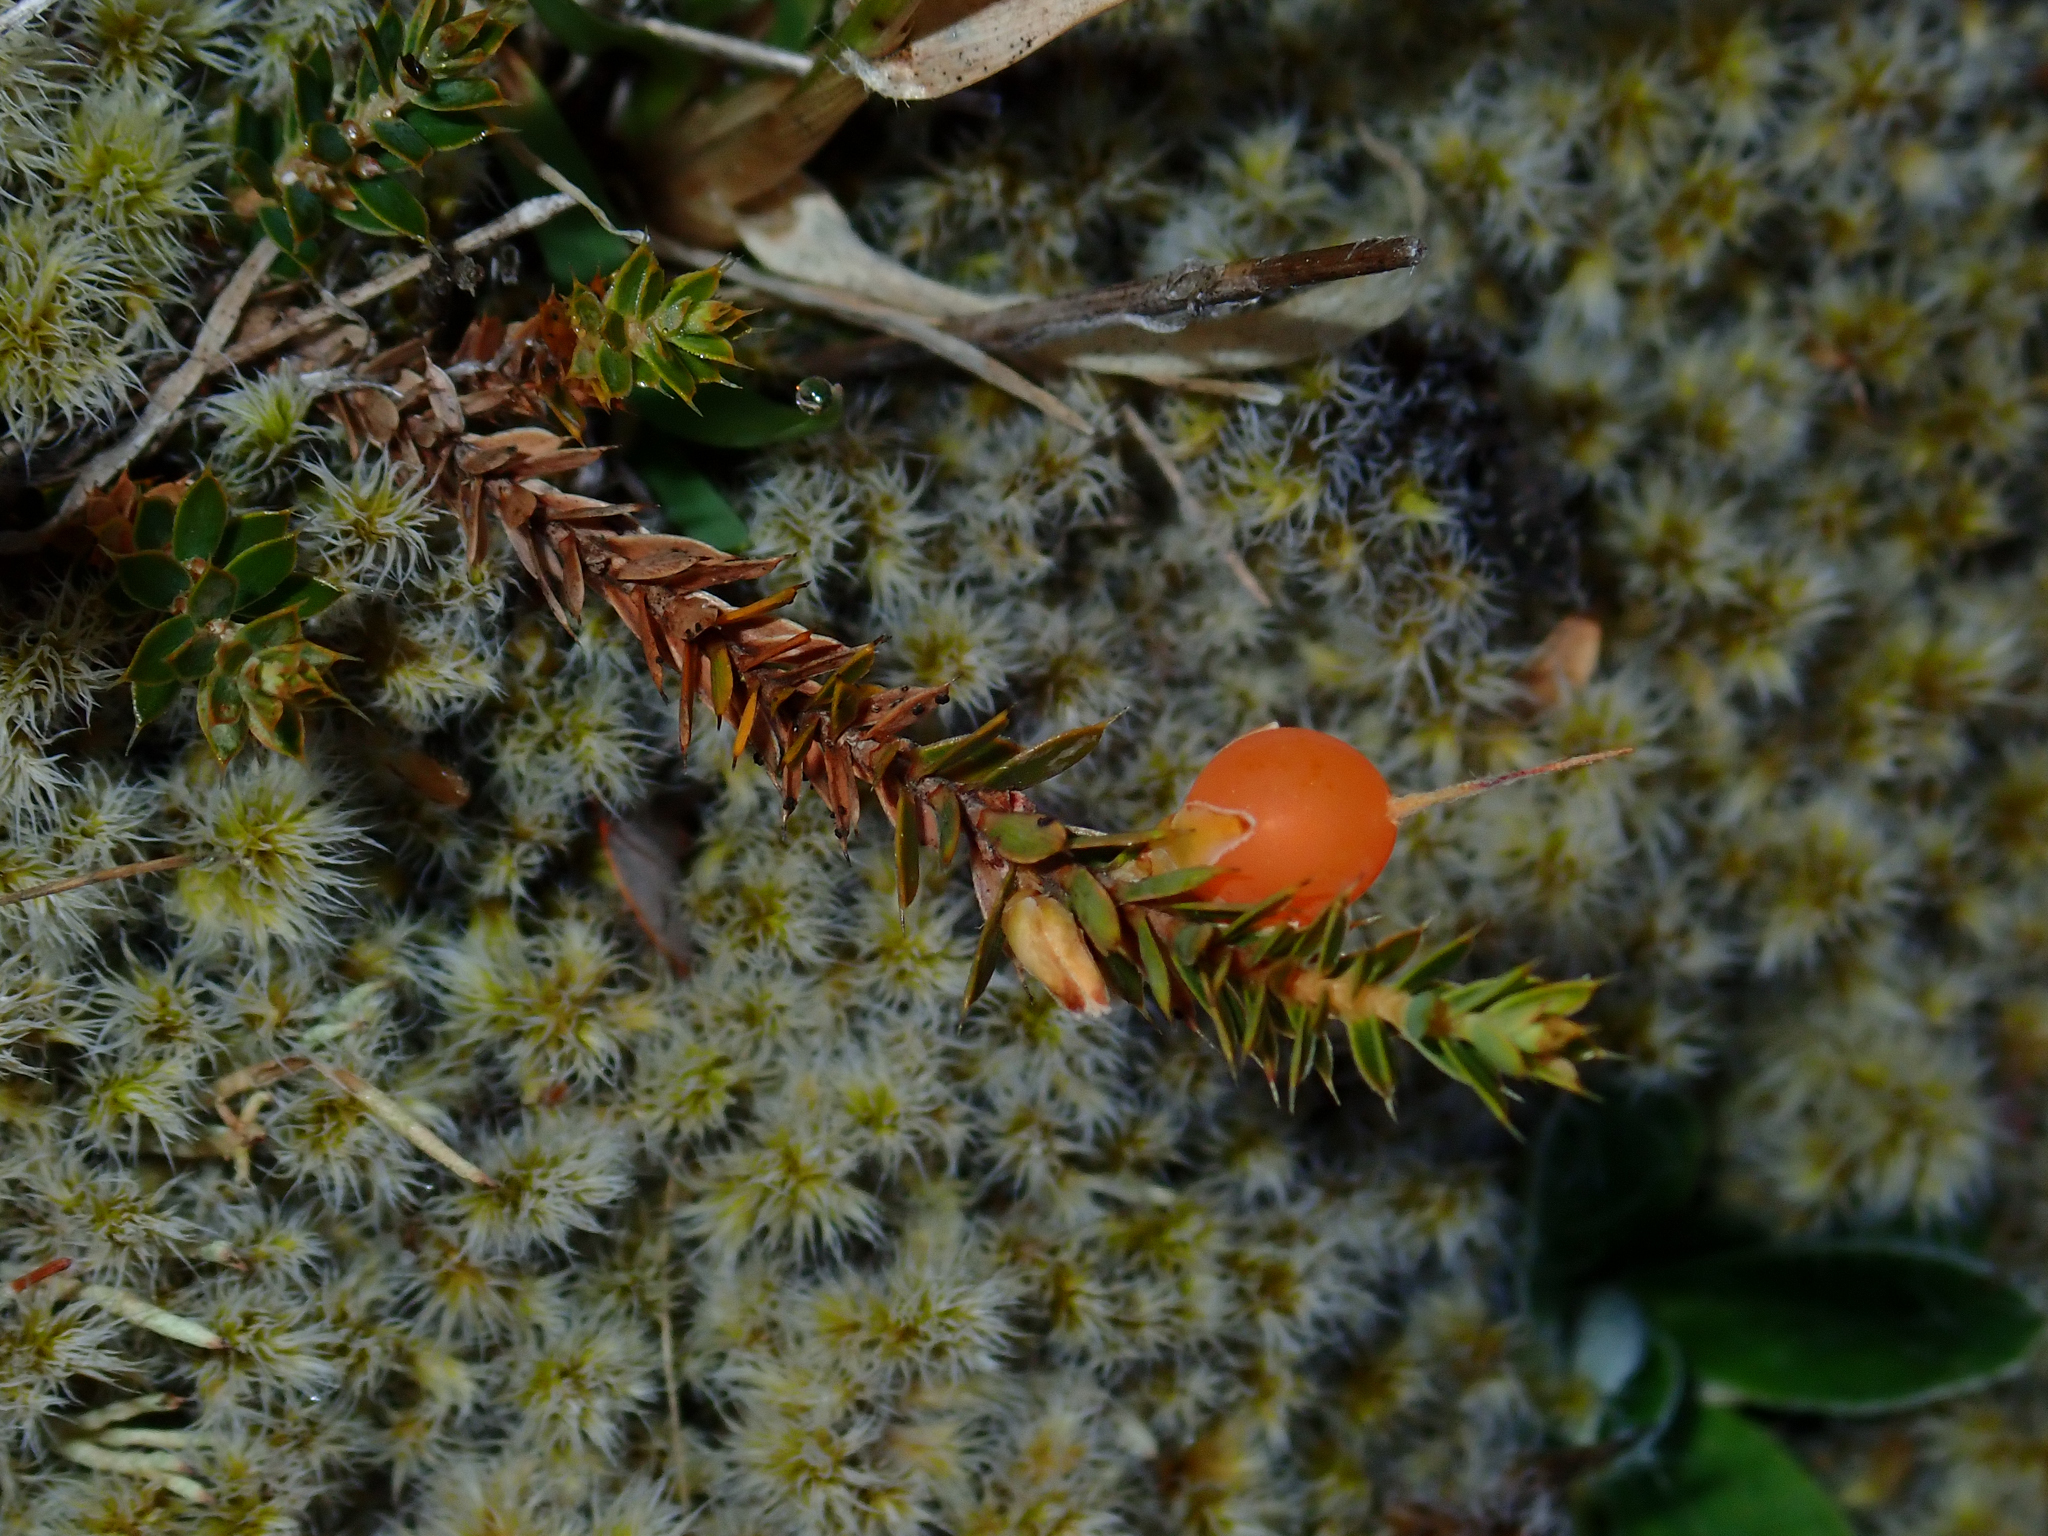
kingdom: Plantae
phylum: Tracheophyta
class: Magnoliopsida
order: Ericales
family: Ericaceae
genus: Styphelia
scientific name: Styphelia nesophila
